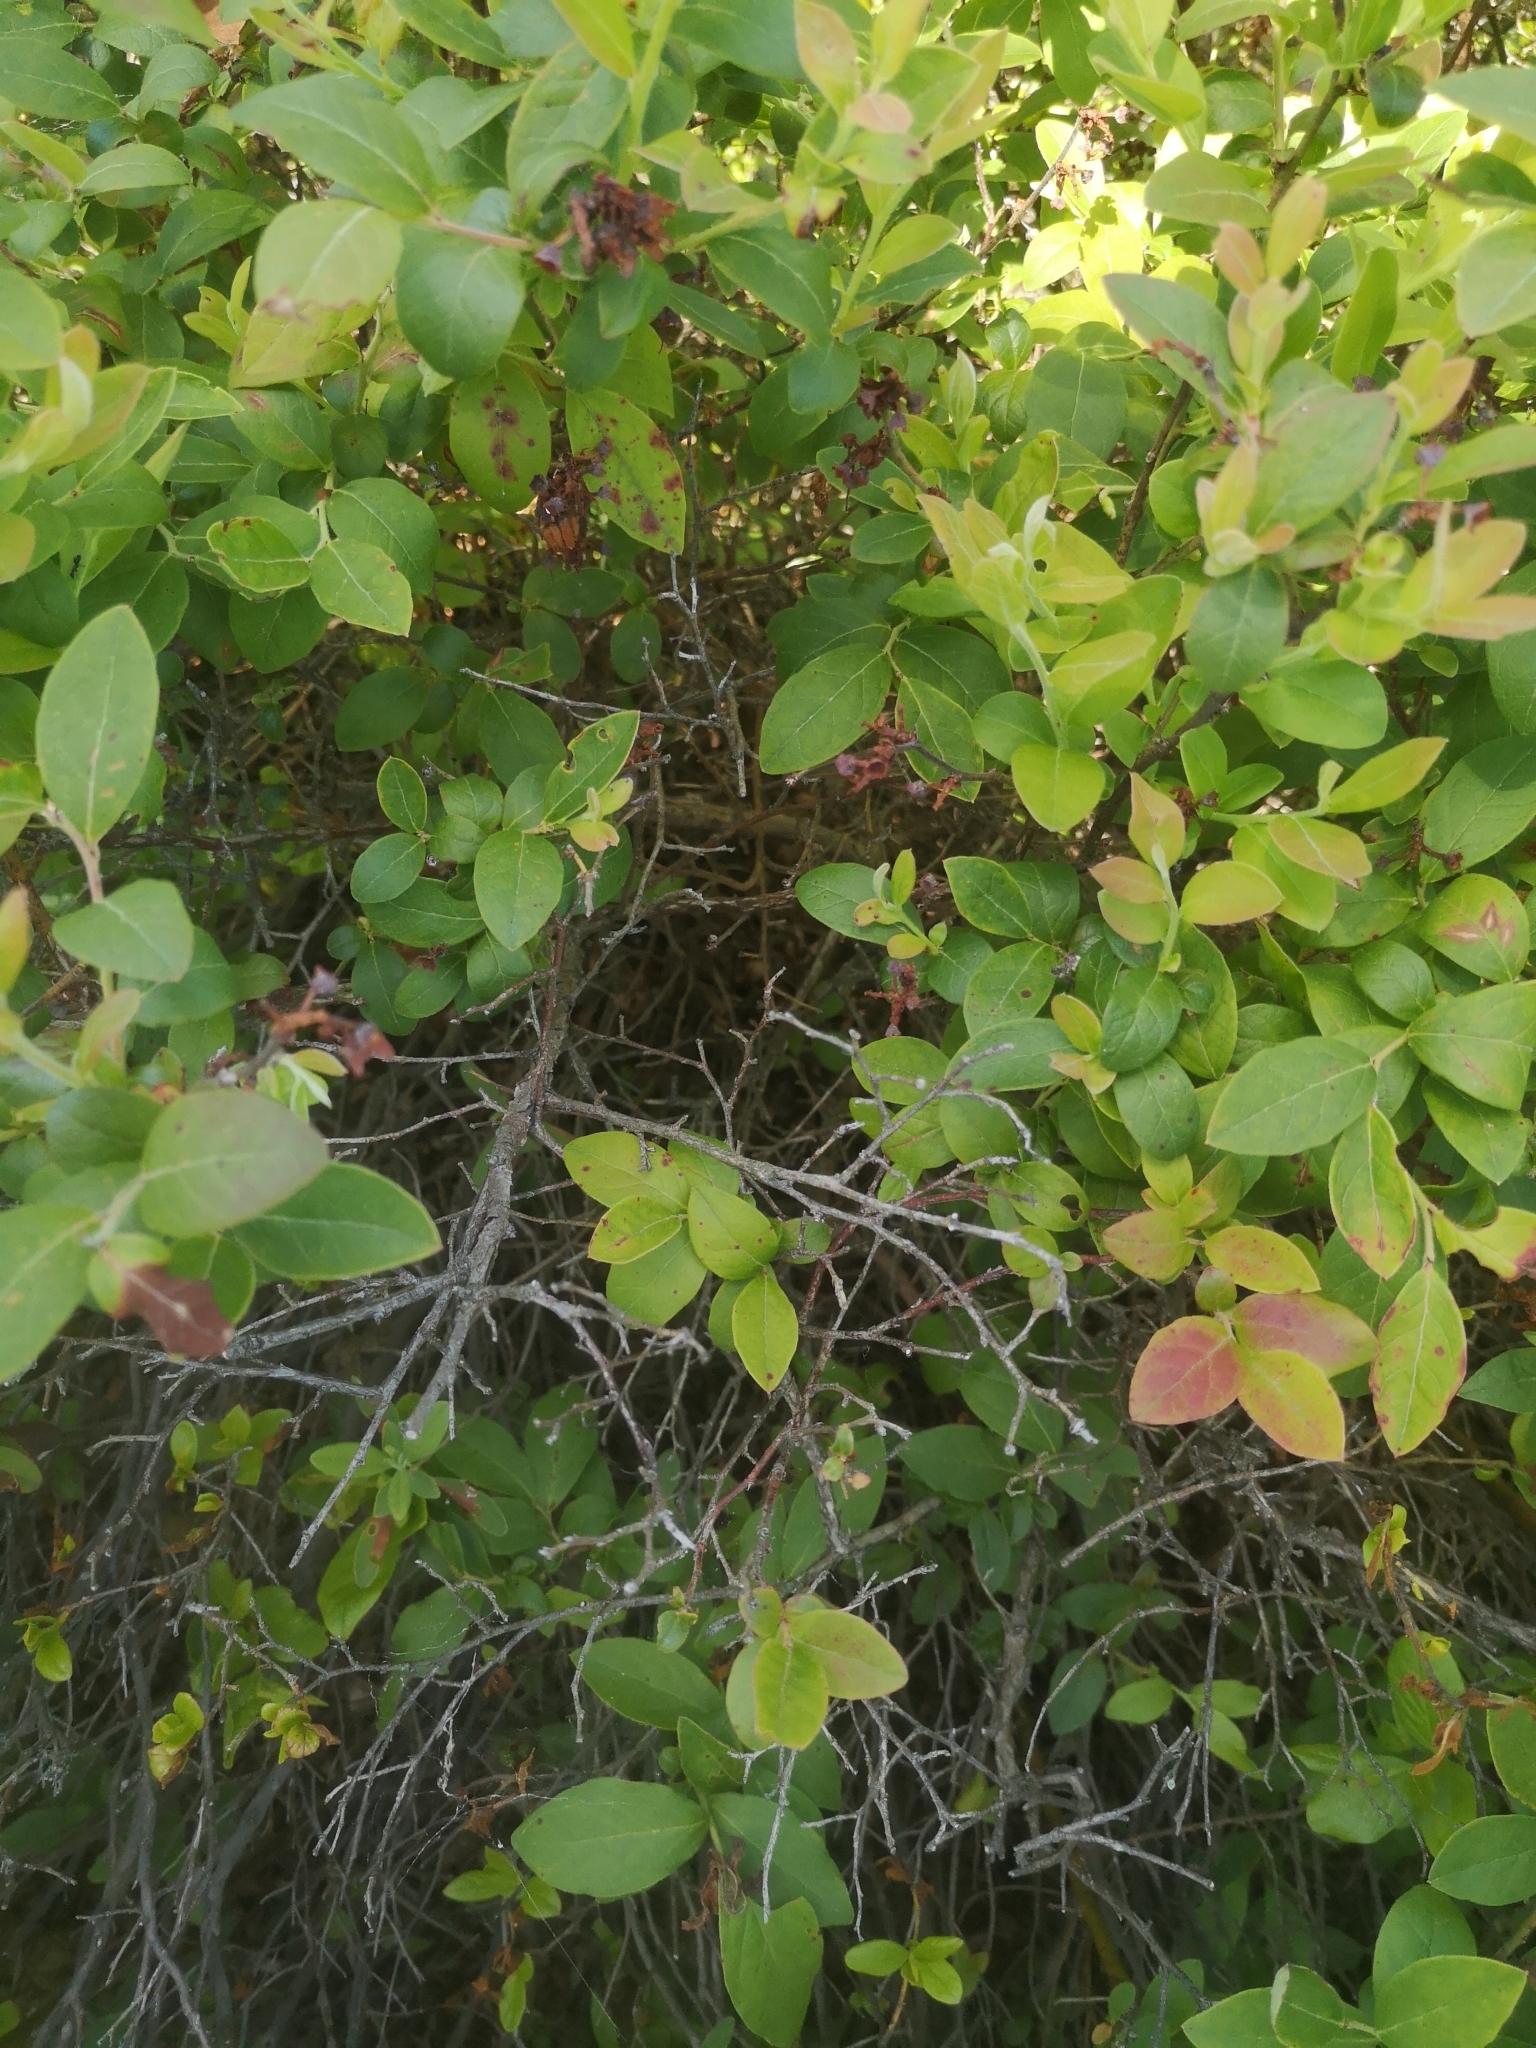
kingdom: Plantae
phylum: Tracheophyta
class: Magnoliopsida
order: Ericales
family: Ericaceae
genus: Vaccinium
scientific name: Vaccinium corymbosum
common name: Blueberry
